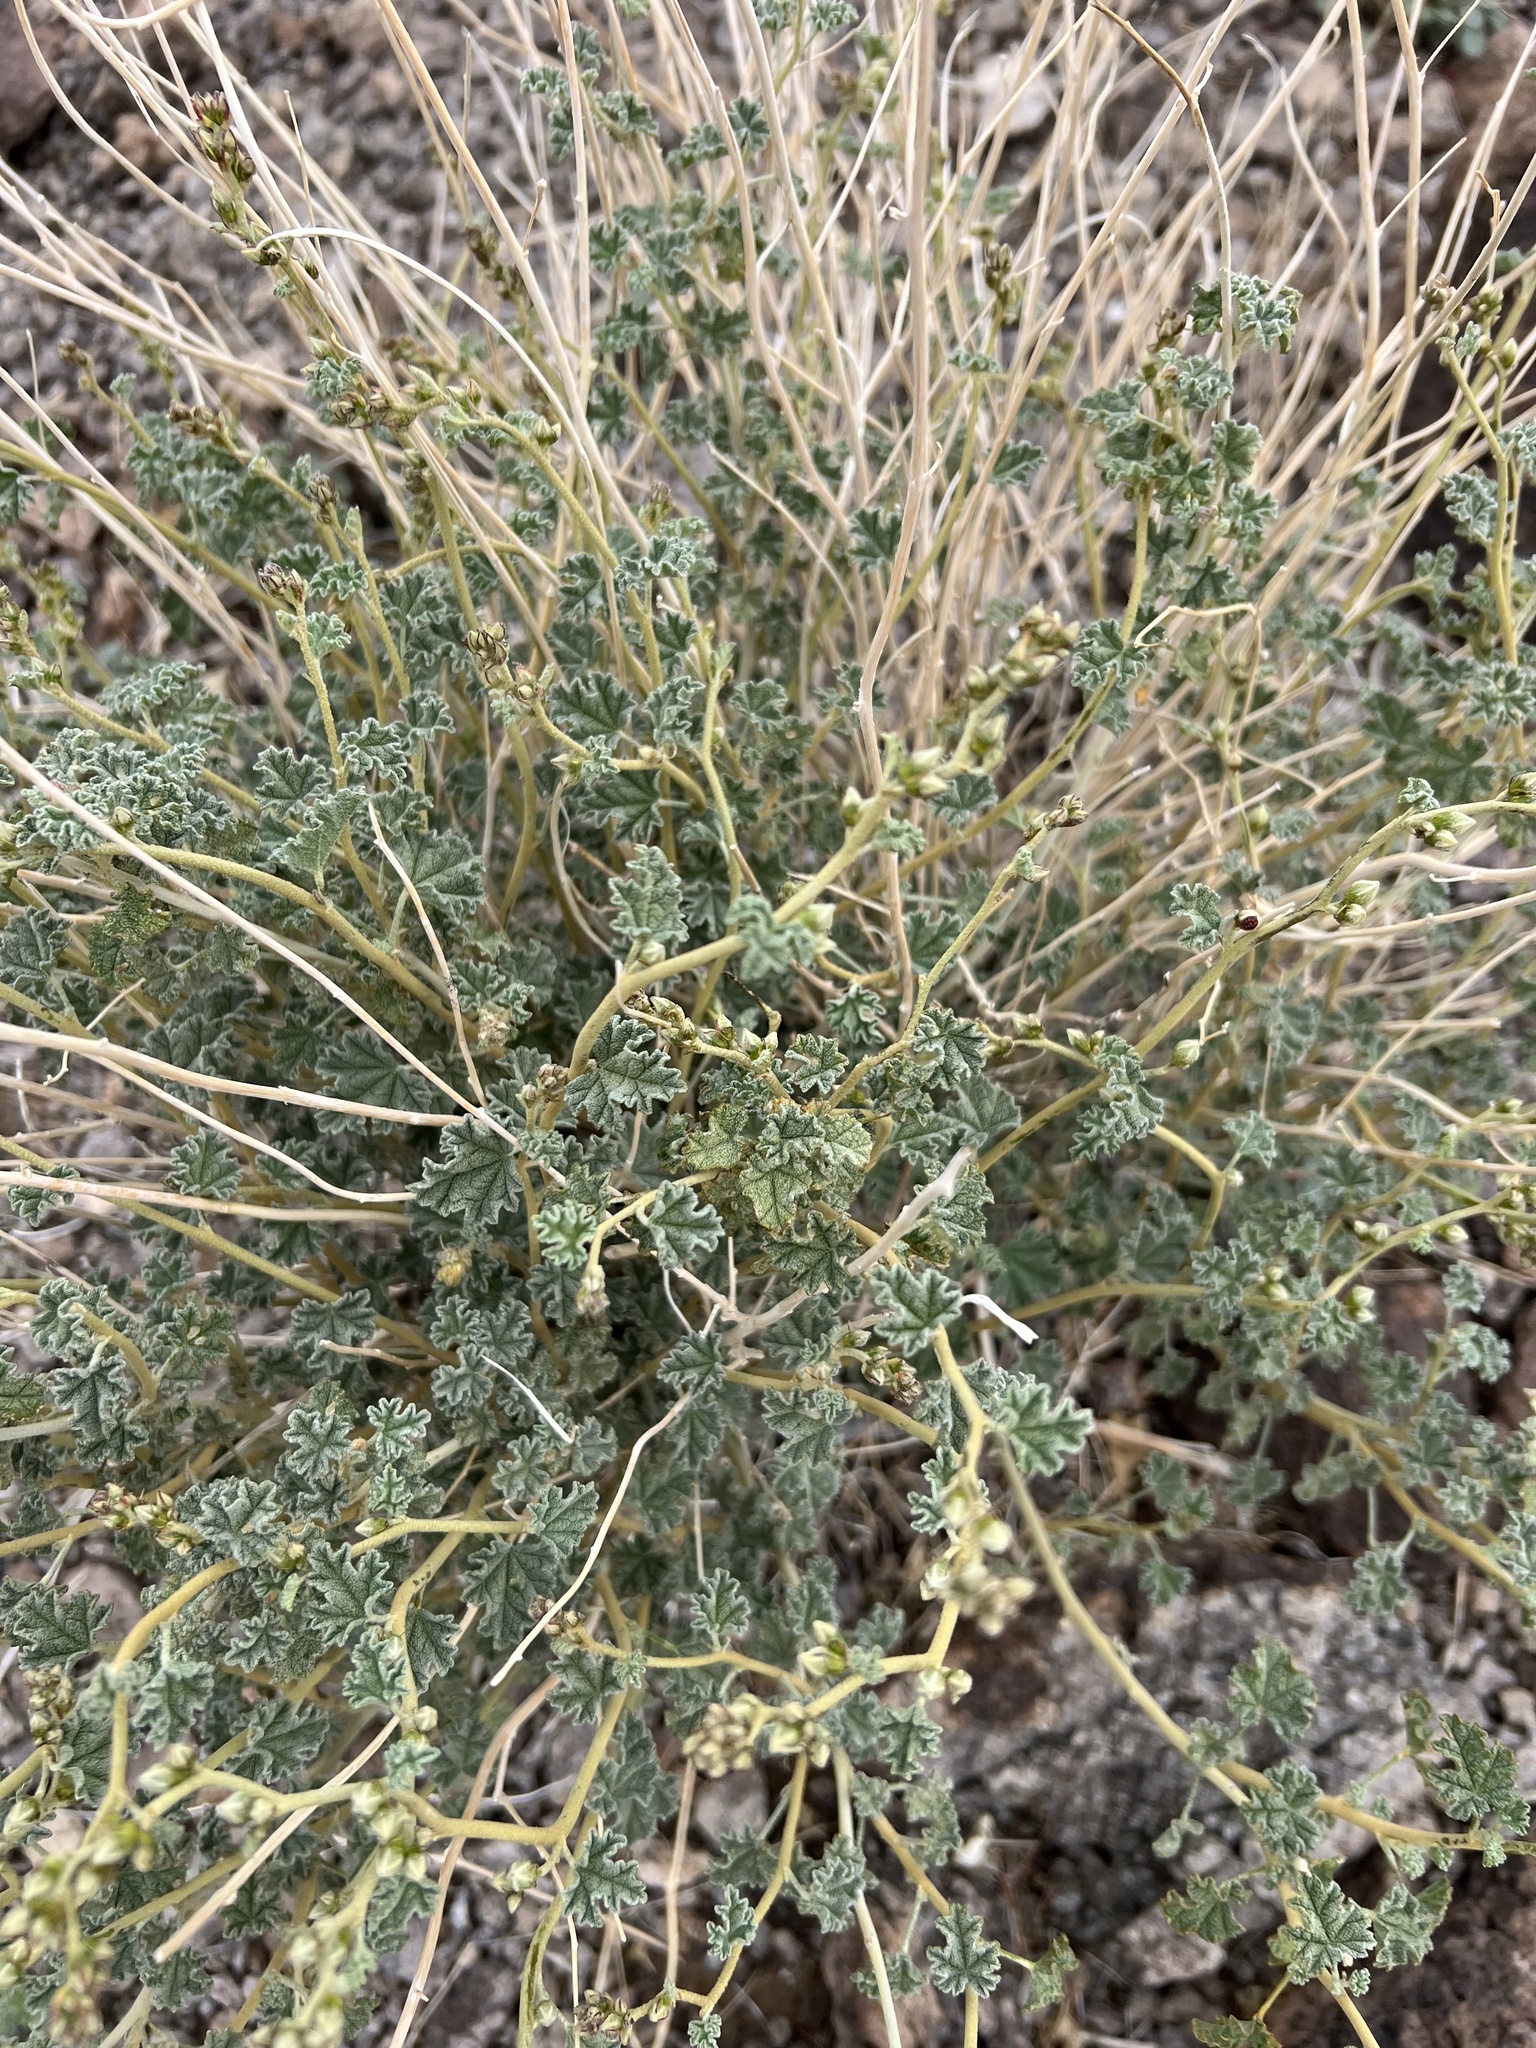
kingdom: Plantae
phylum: Tracheophyta
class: Magnoliopsida
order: Malvales
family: Malvaceae
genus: Sphaeralcea
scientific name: Sphaeralcea ambigua
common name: Apricot globe-mallow
